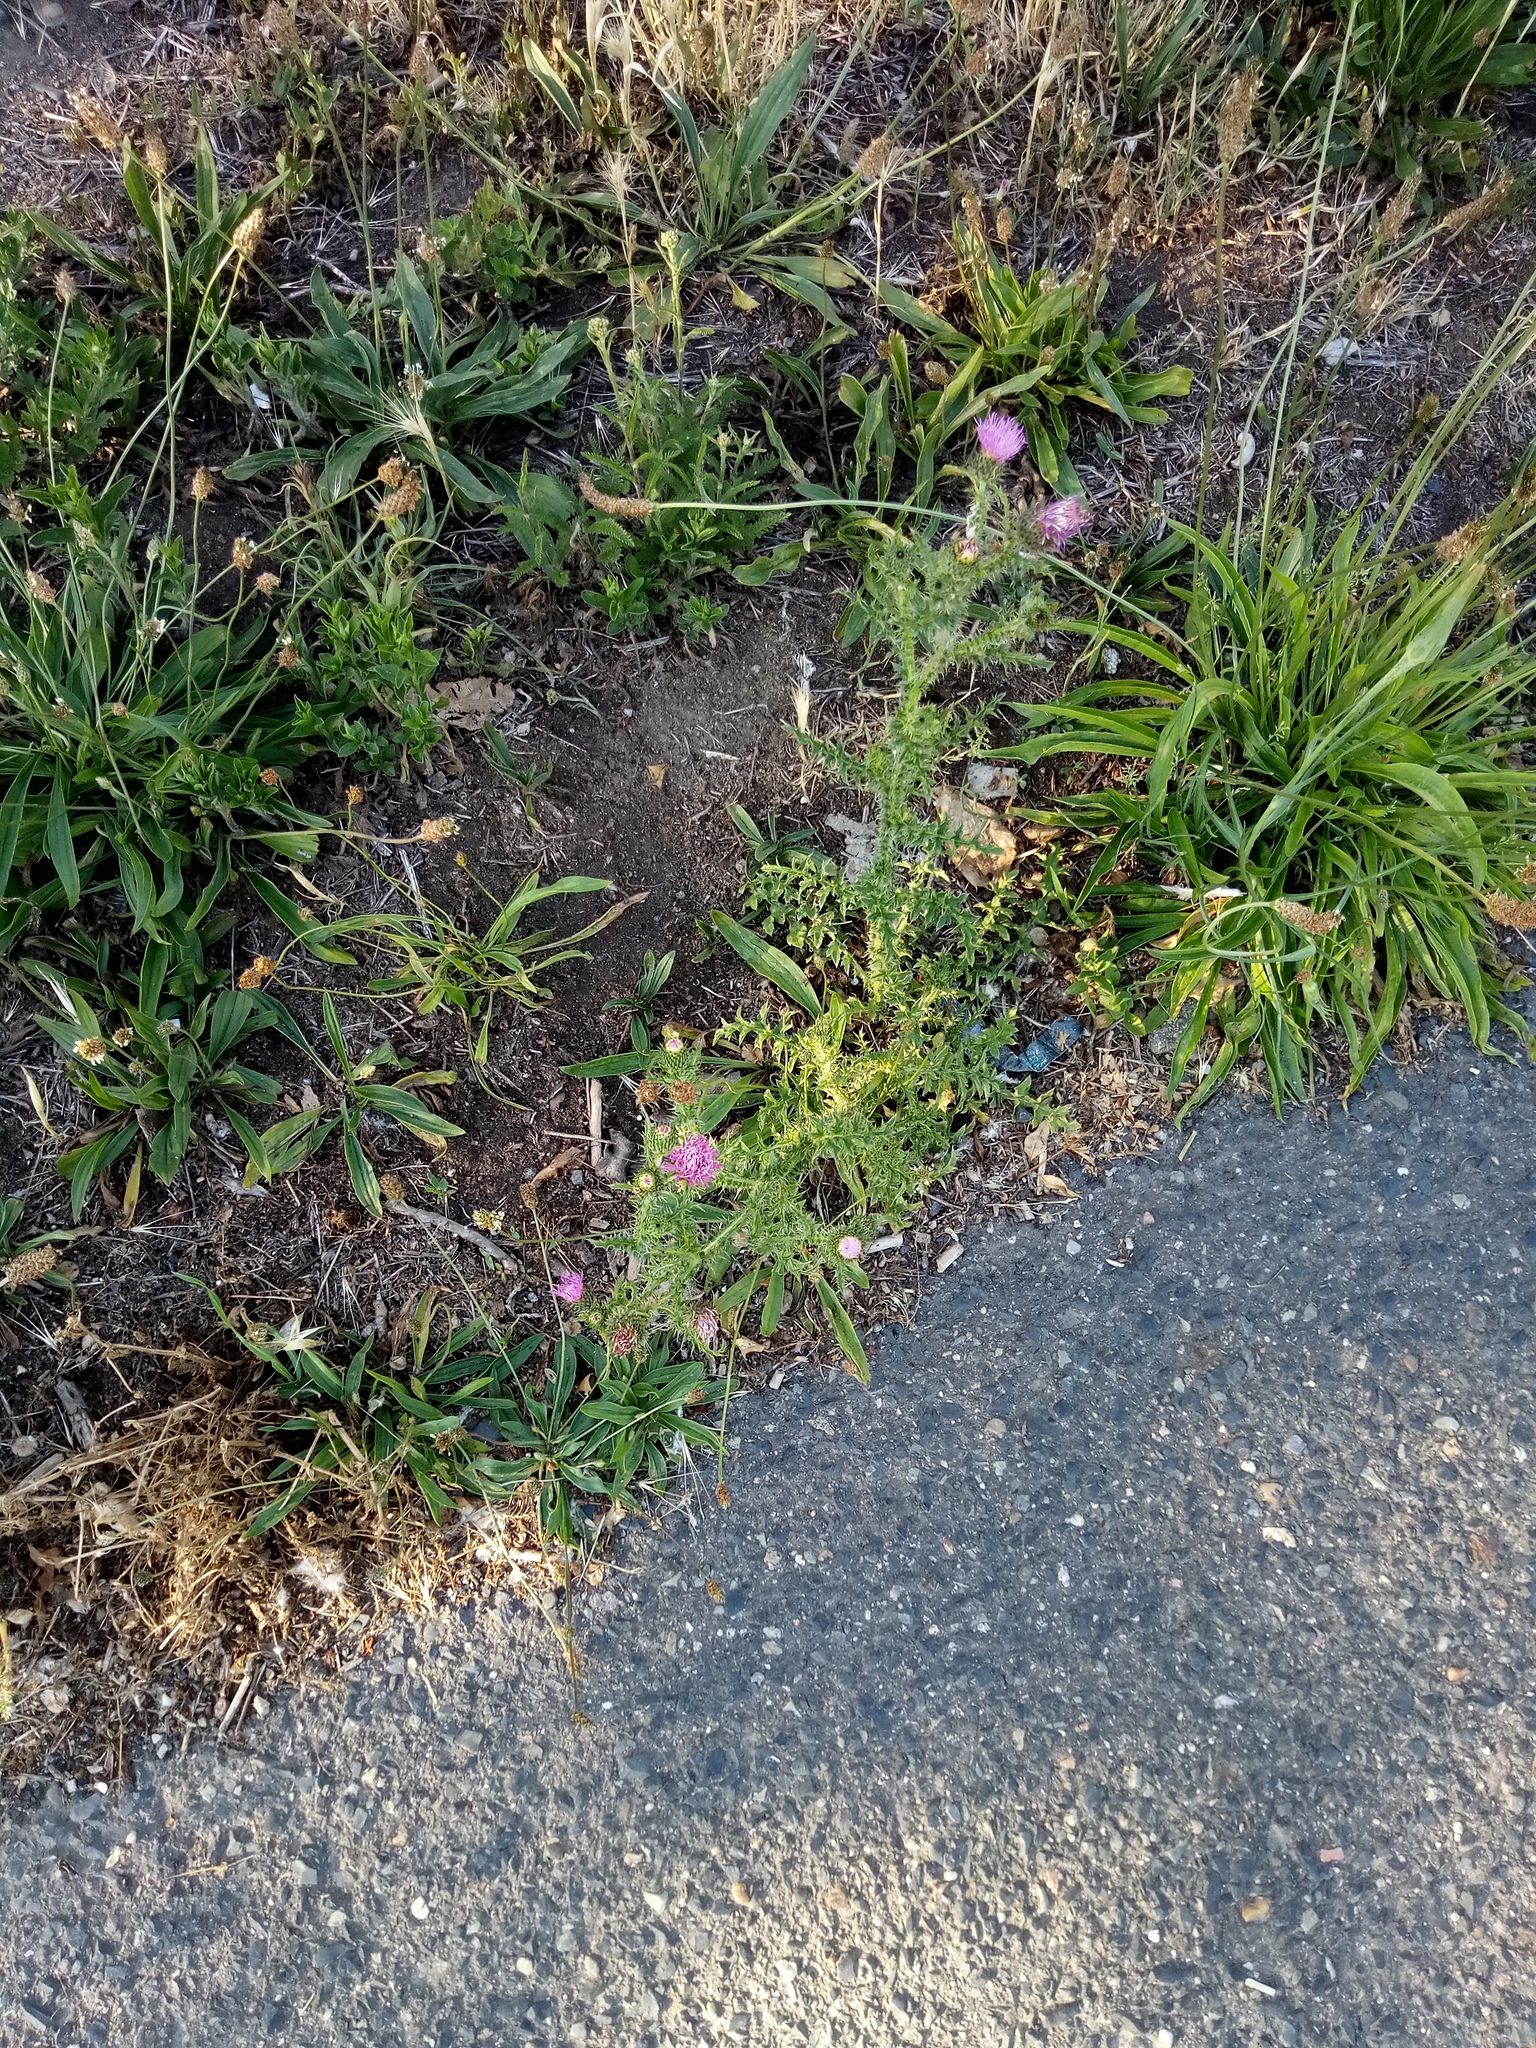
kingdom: Plantae
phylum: Tracheophyta
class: Magnoliopsida
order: Asterales
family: Asteraceae
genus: Carduus
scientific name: Carduus acanthoides
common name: Plumeless thistle
